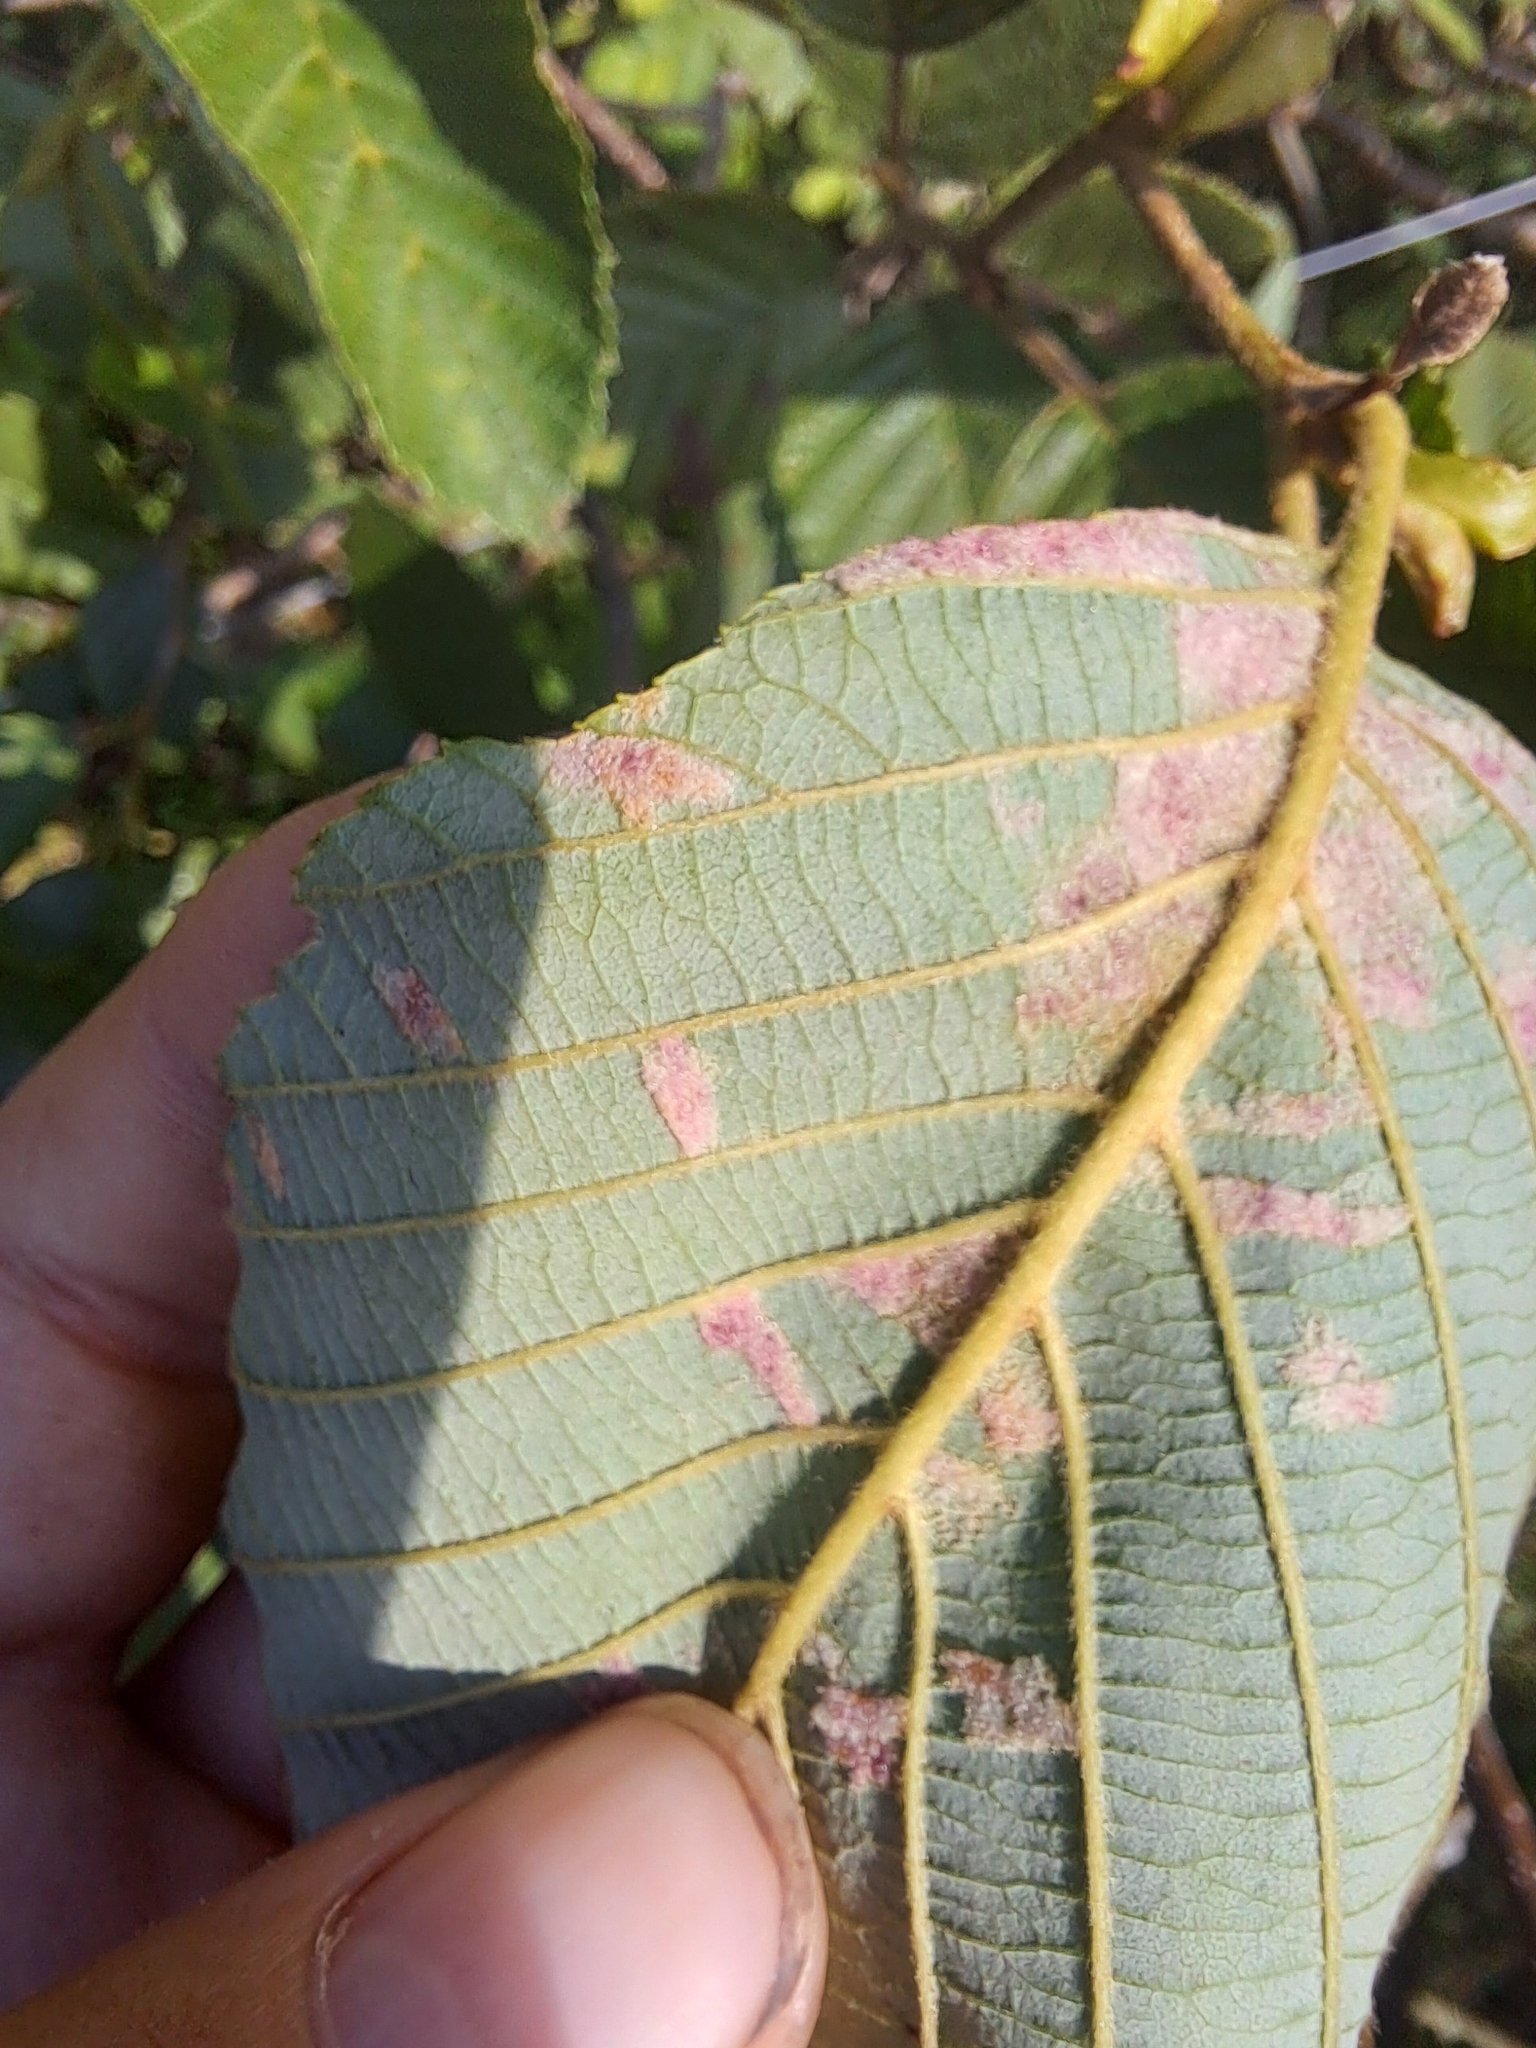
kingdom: Animalia
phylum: Arthropoda
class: Arachnida
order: Trombidiformes
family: Eriophyidae
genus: Acalitus
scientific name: Acalitus brevitarsus
